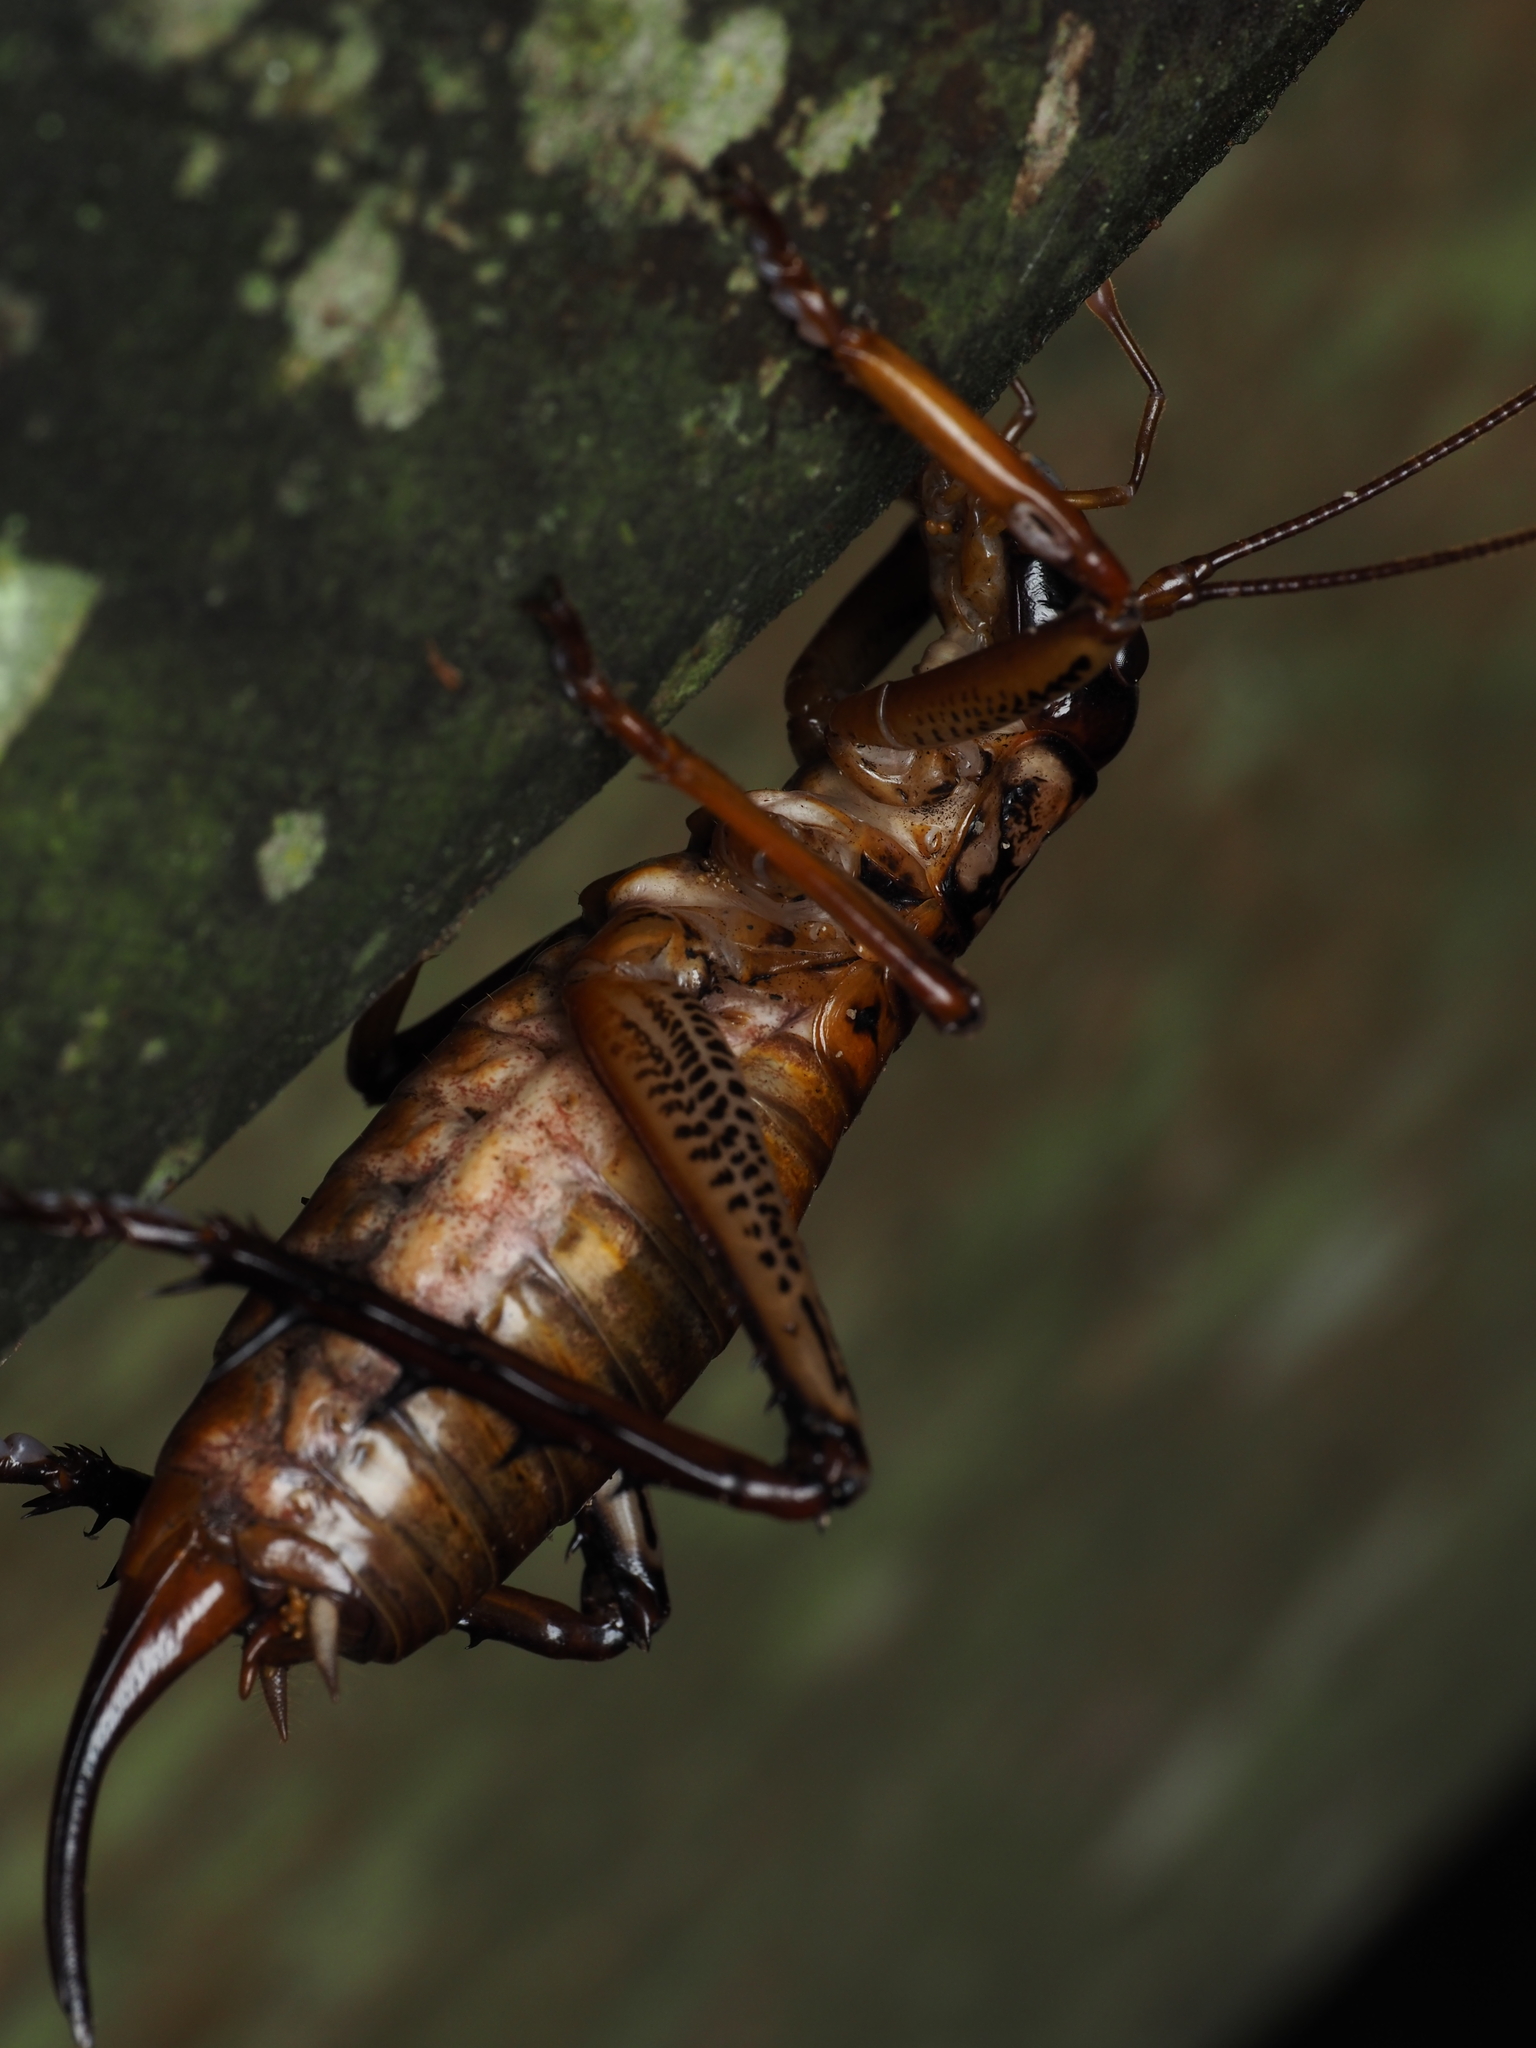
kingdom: Animalia
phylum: Arthropoda
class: Insecta
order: Orthoptera
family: Anostostomatidae
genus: Hemideina
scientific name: Hemideina thoracica
